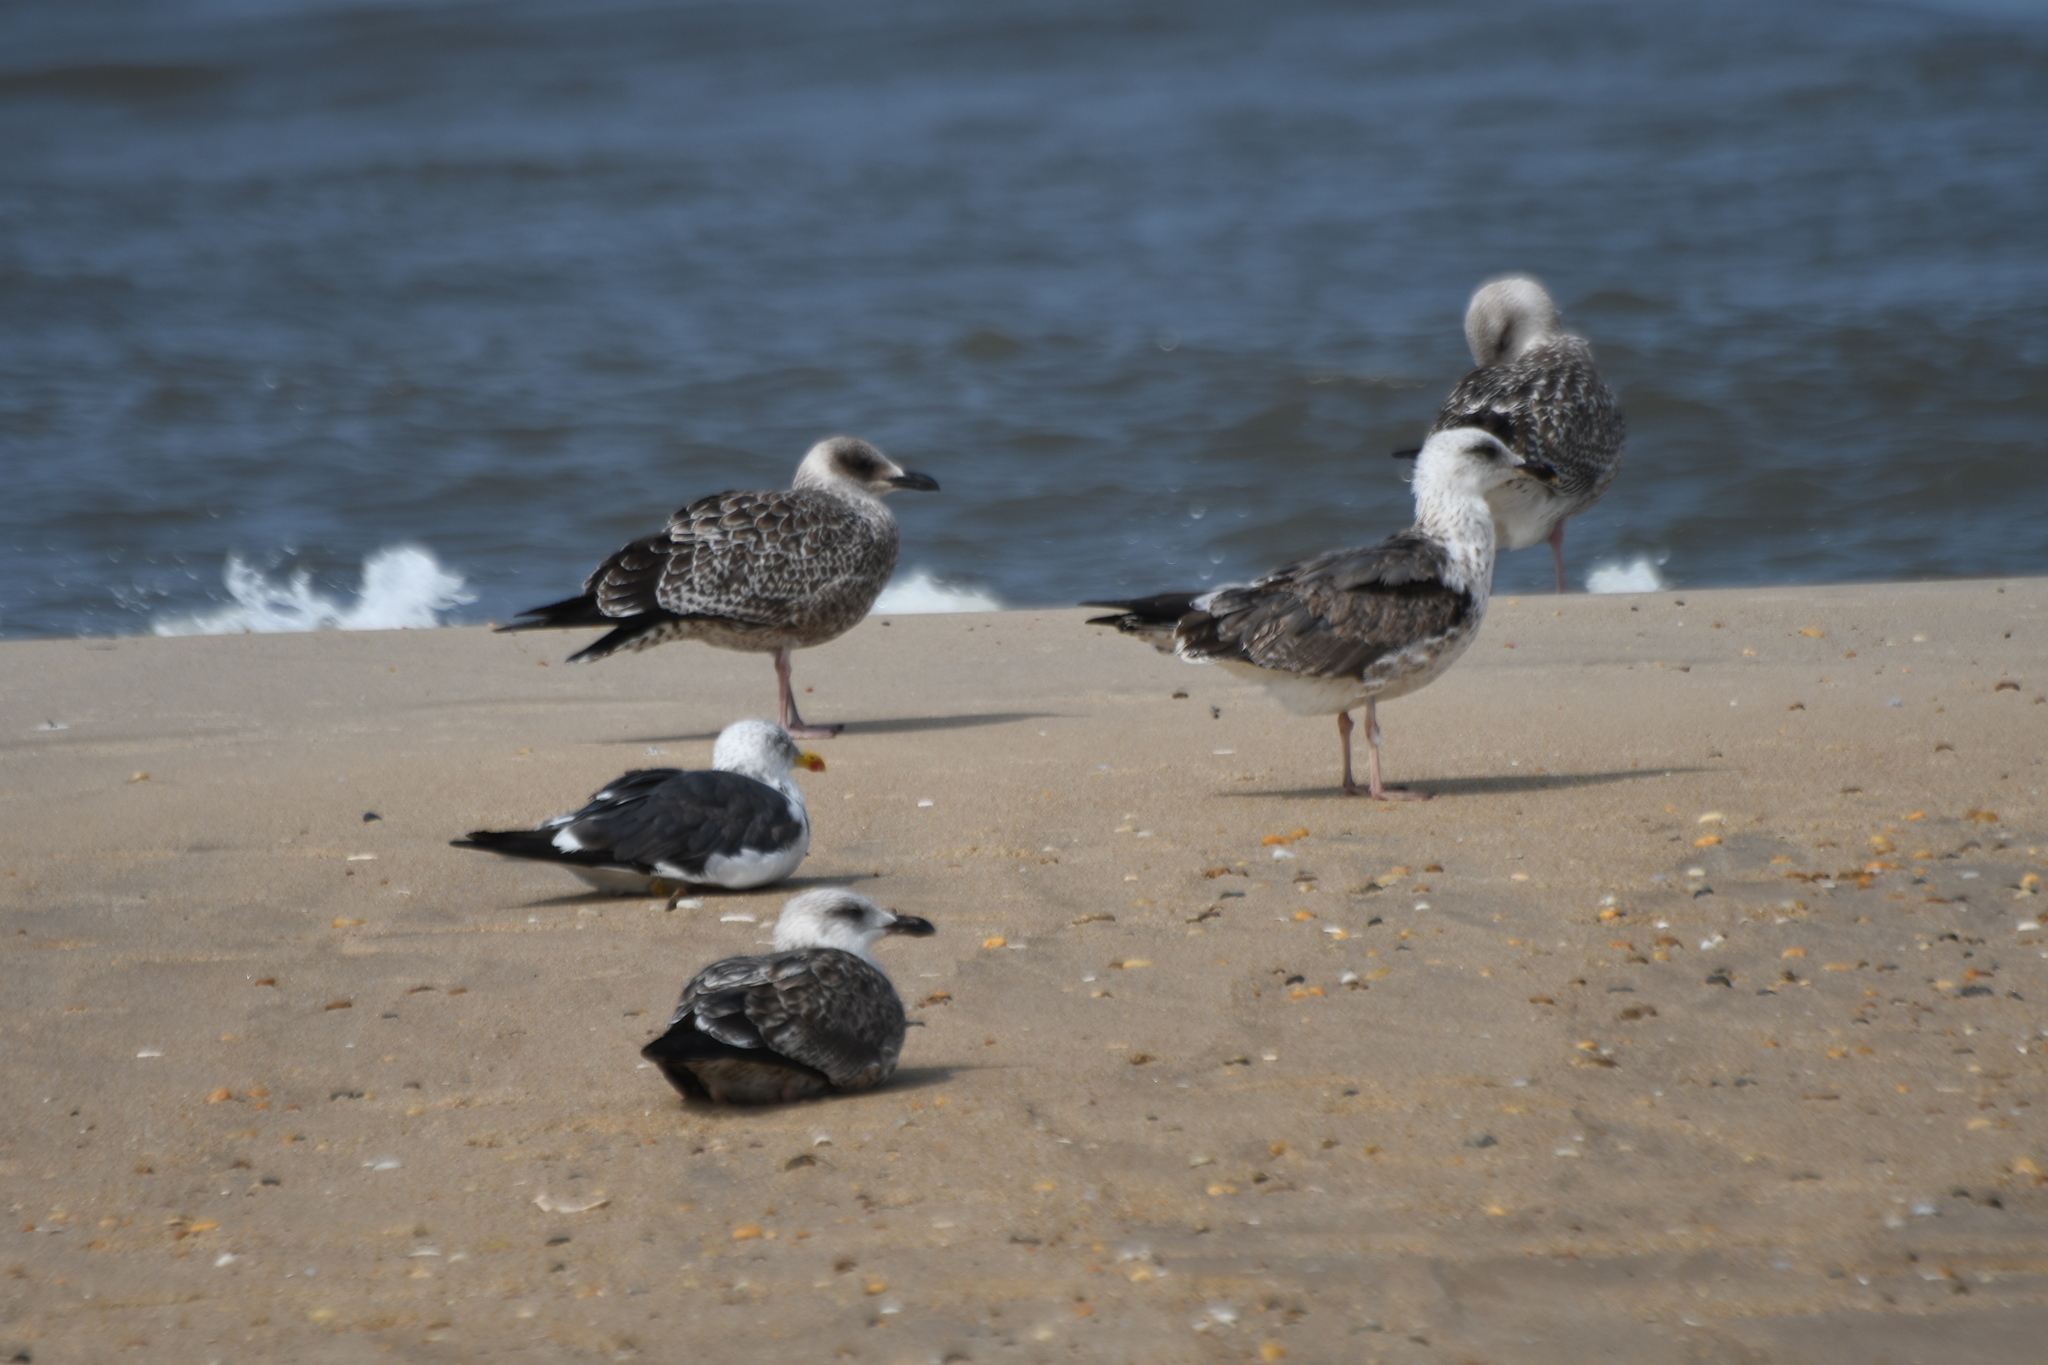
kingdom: Animalia
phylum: Chordata
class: Aves
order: Charadriiformes
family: Laridae
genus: Larus
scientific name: Larus fuscus
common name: Lesser black-backed gull
